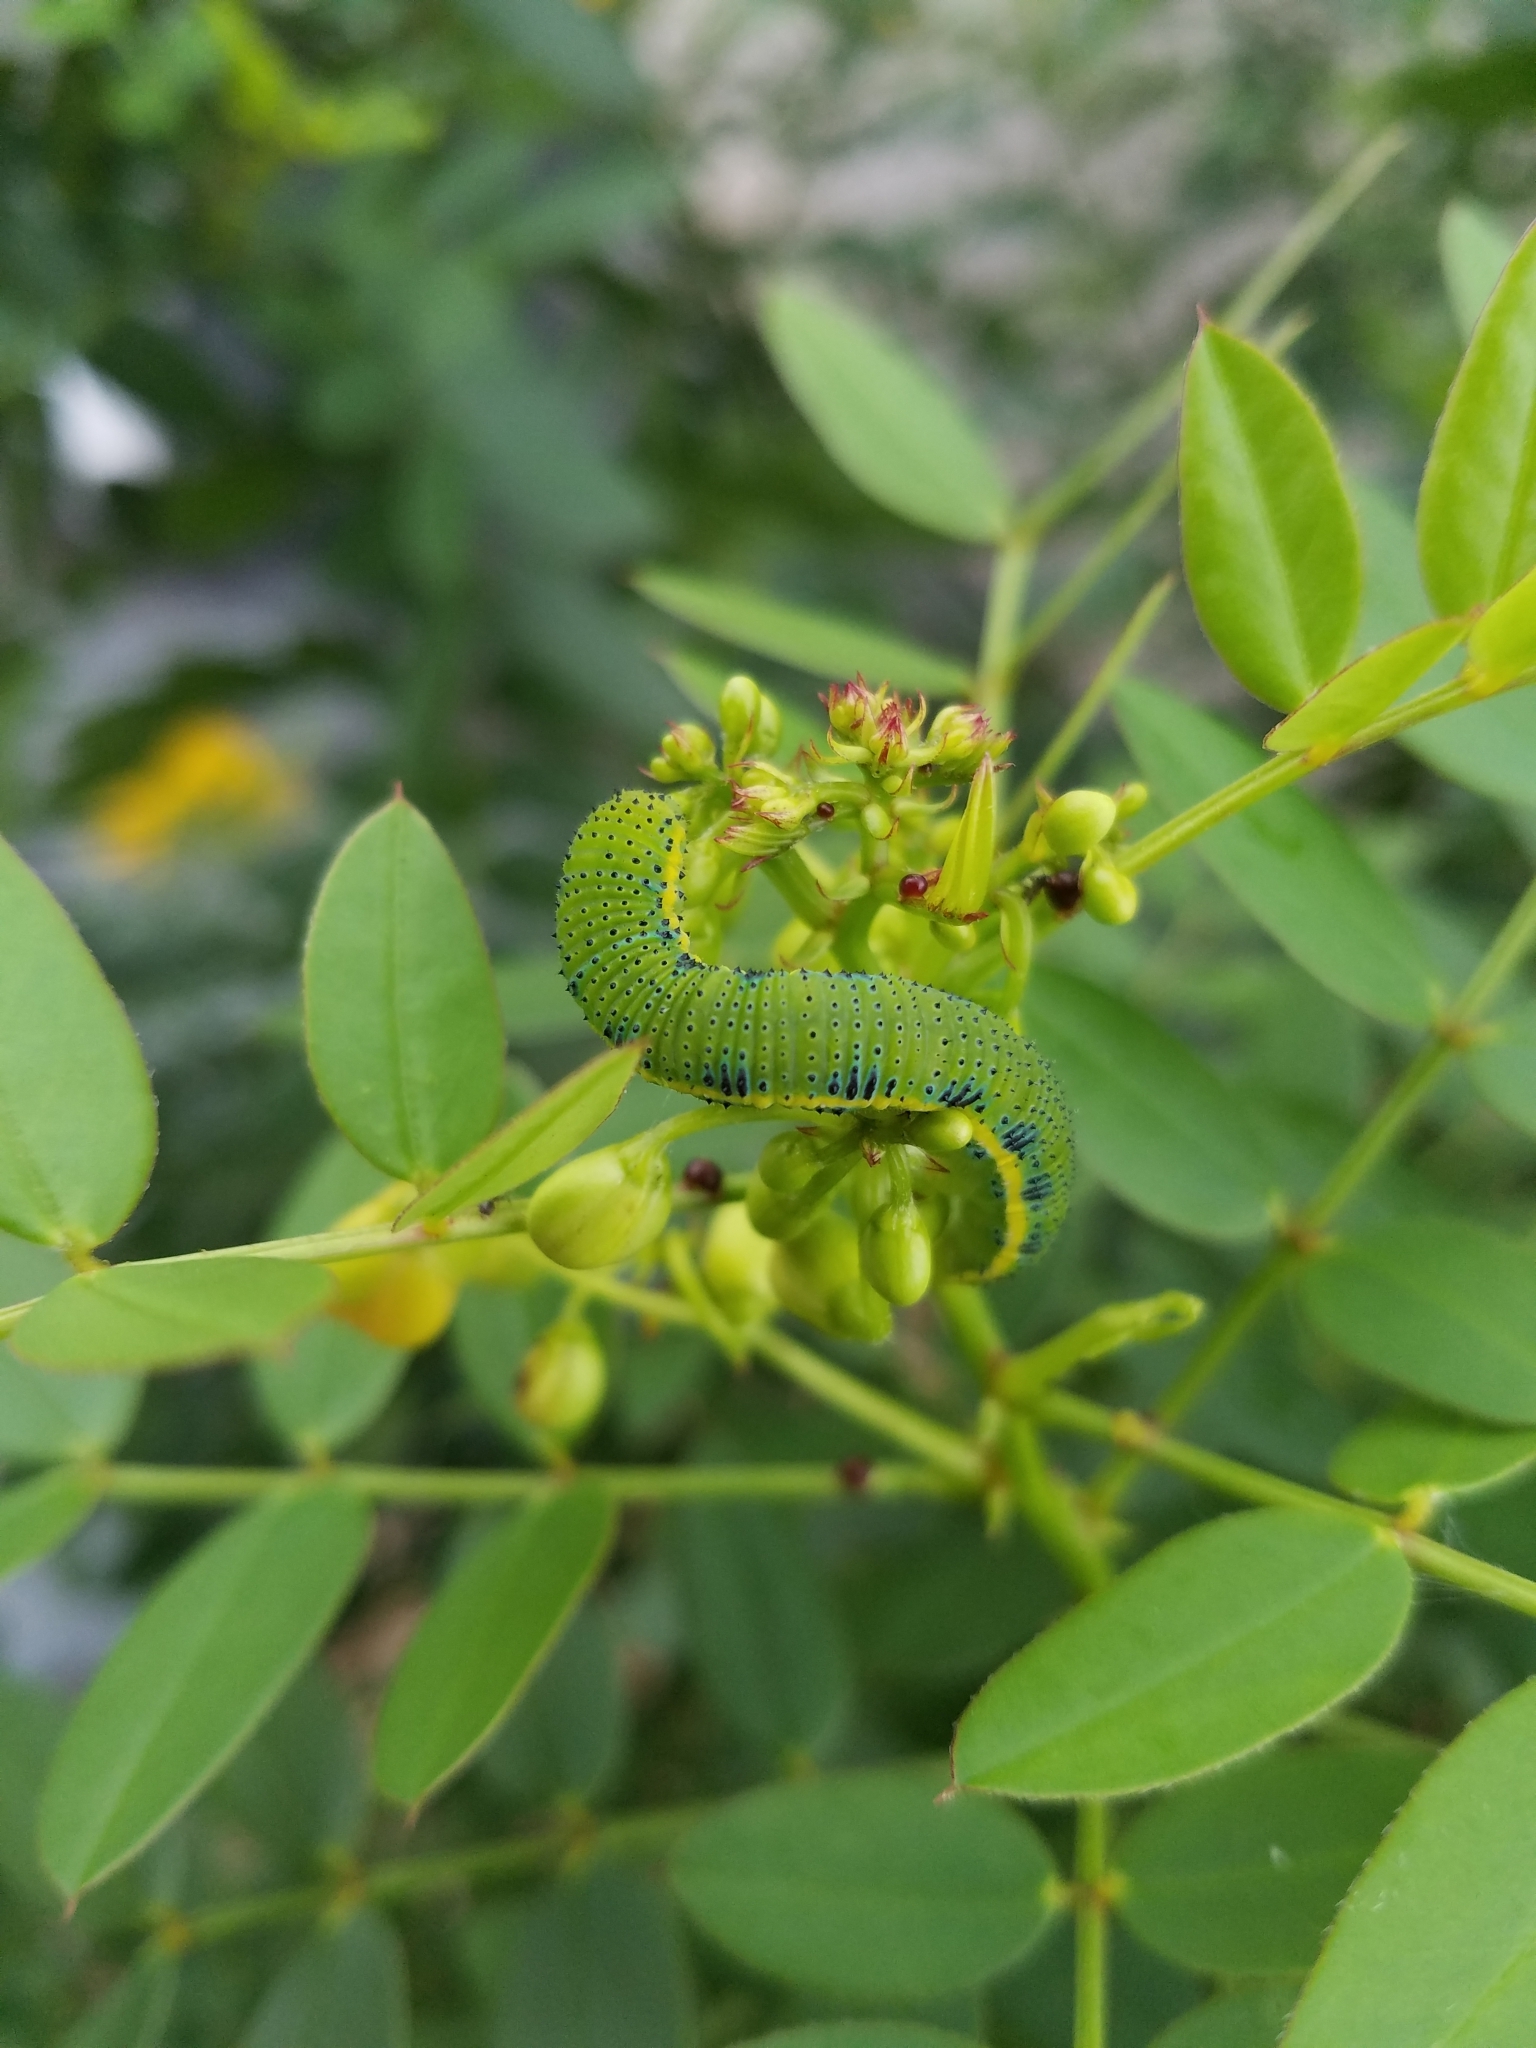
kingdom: Animalia
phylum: Arthropoda
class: Insecta
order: Lepidoptera
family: Pieridae
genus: Phoebis
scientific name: Phoebis sennae
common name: Cloudless sulphur
